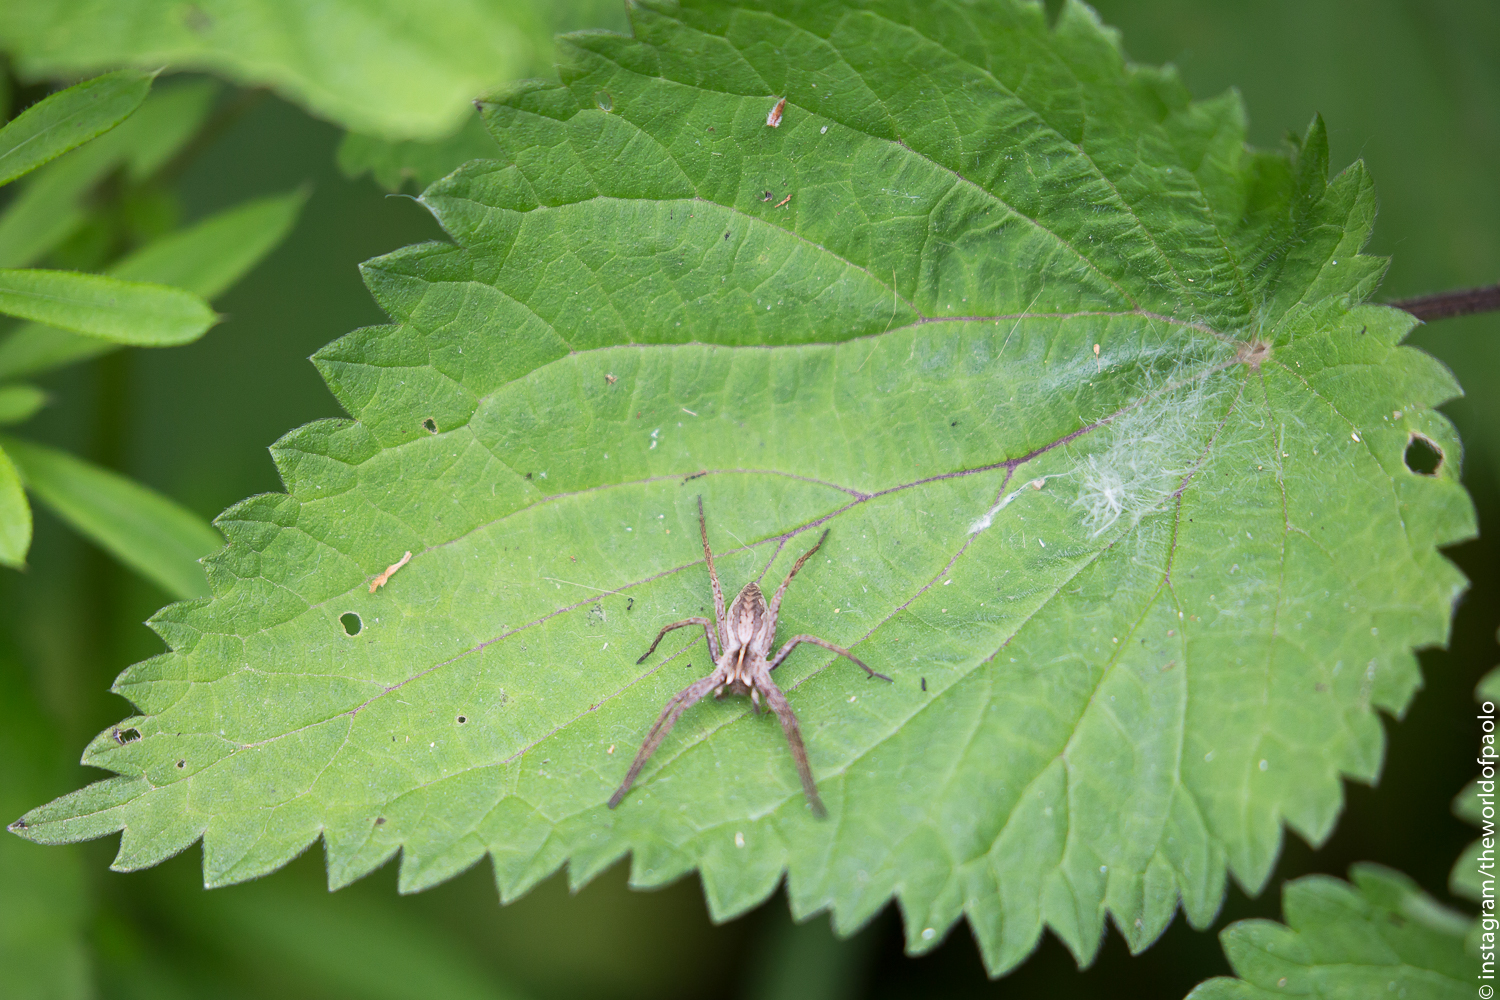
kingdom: Animalia
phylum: Arthropoda
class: Arachnida
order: Araneae
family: Pisauridae
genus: Pisaura
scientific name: Pisaura mirabilis
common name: Tent spider
